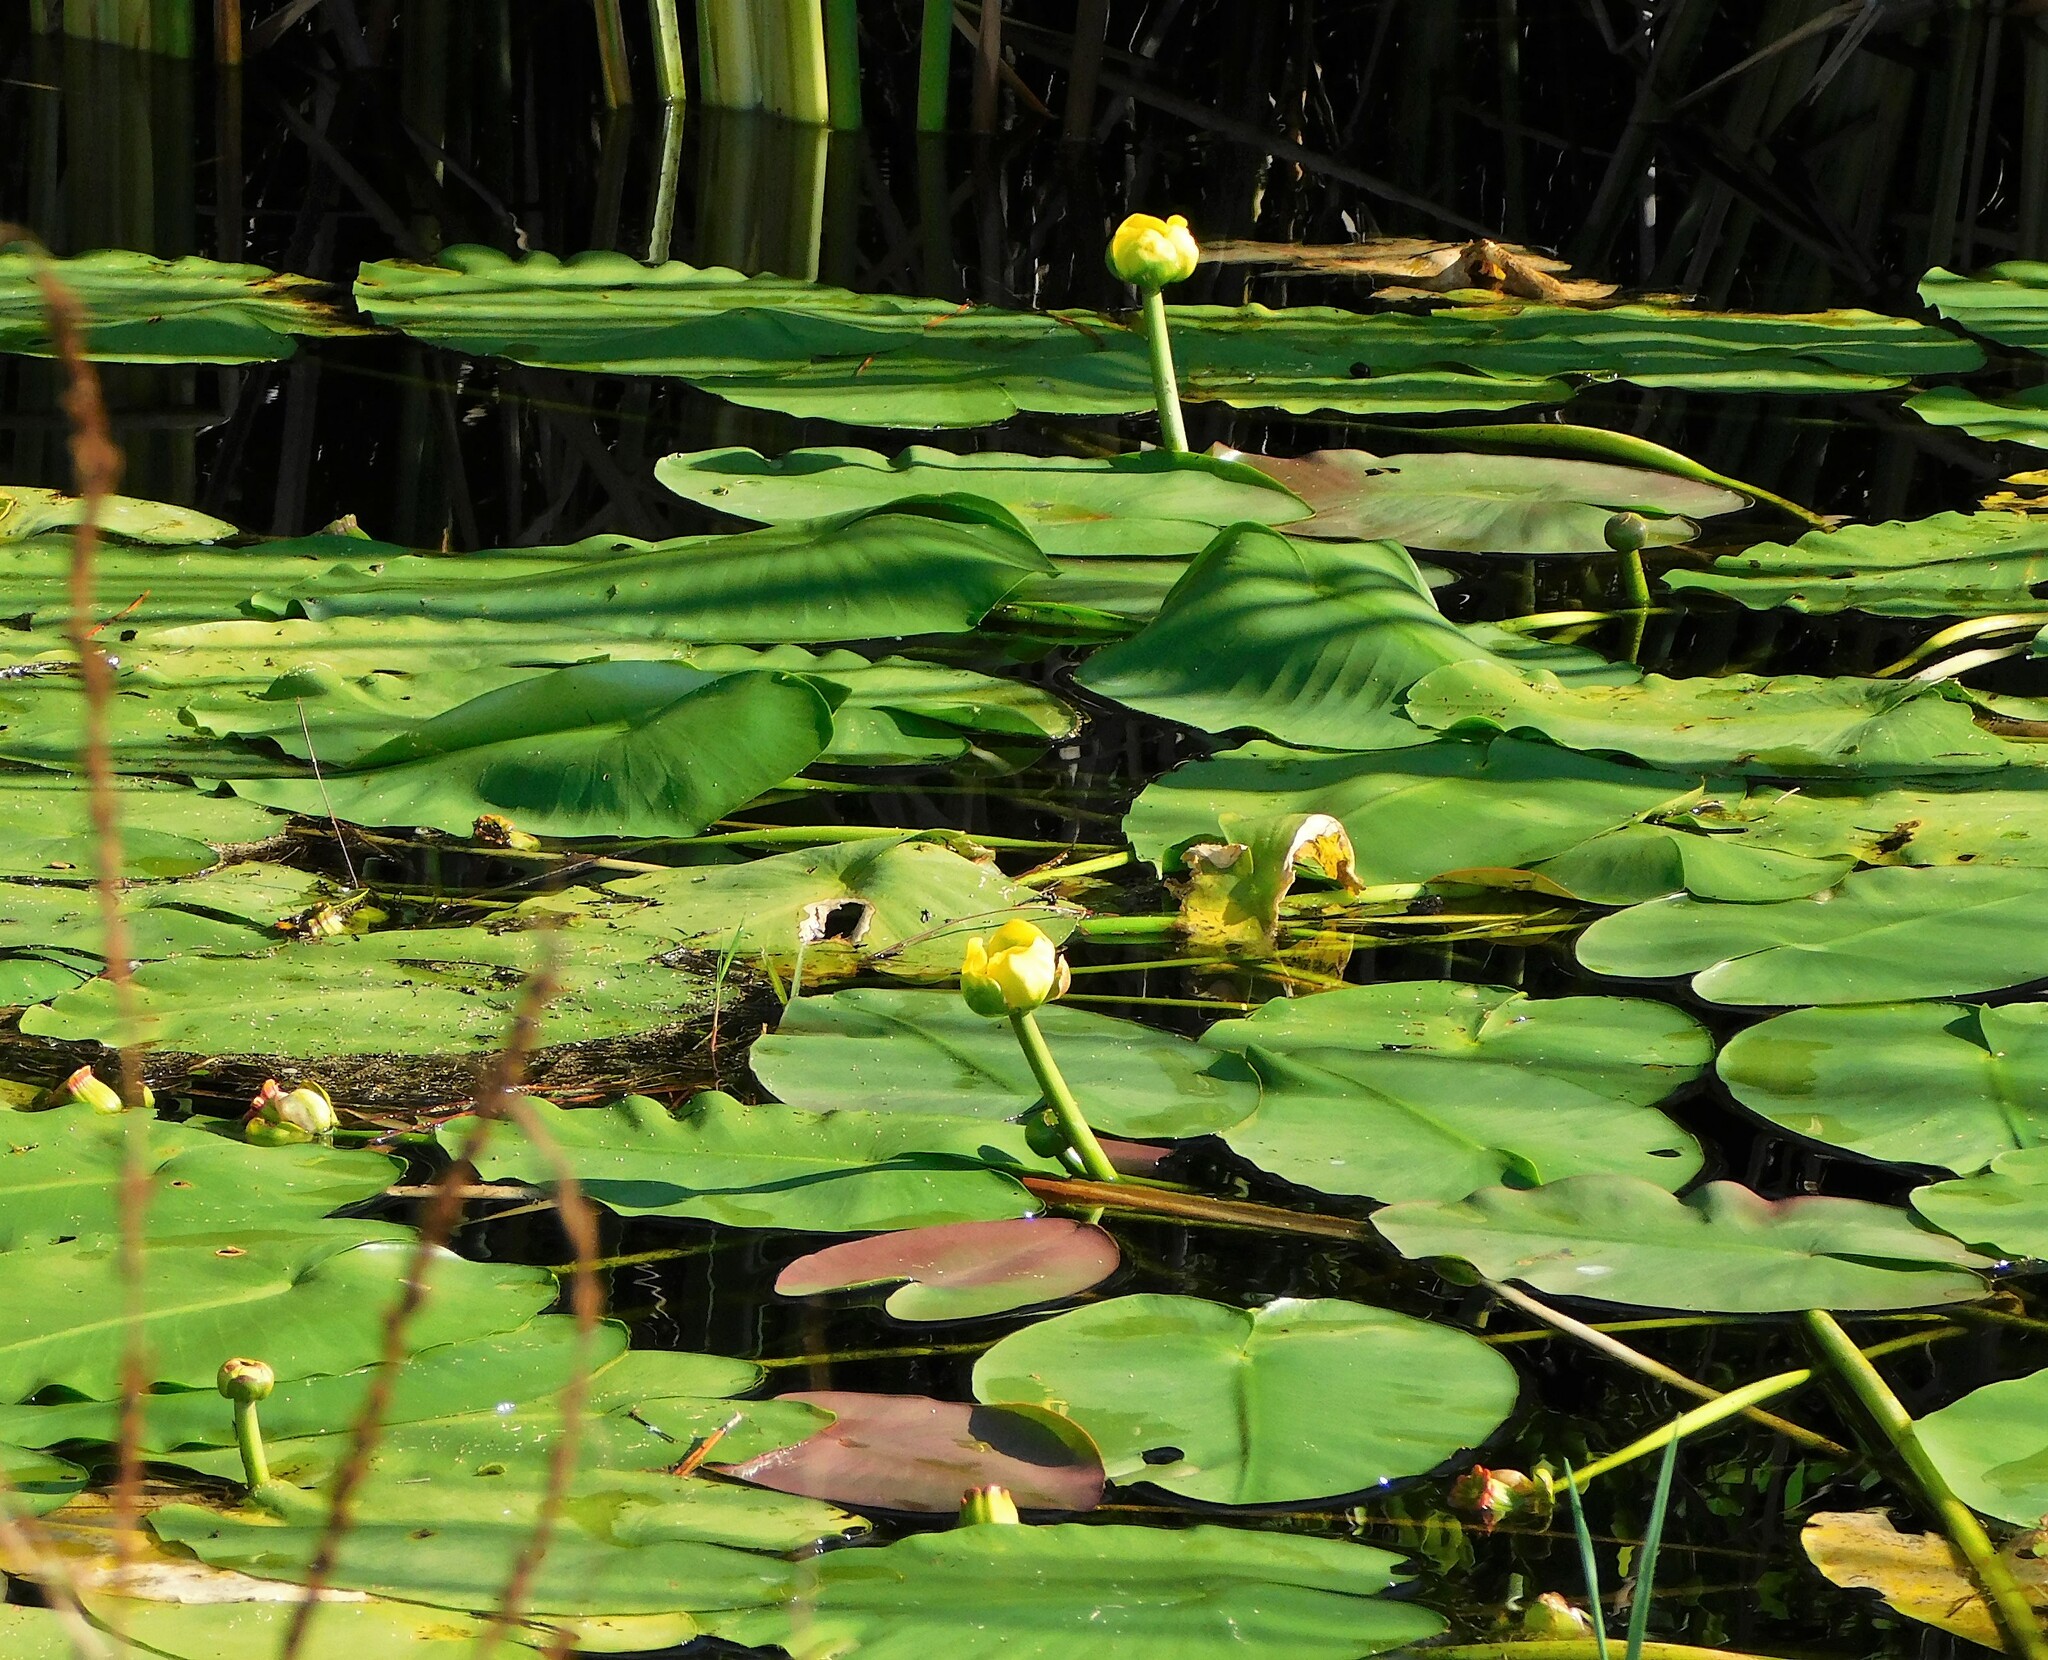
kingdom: Plantae
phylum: Tracheophyta
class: Magnoliopsida
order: Nymphaeales
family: Nymphaeaceae
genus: Nuphar
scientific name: Nuphar advena
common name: Spatter-dock
